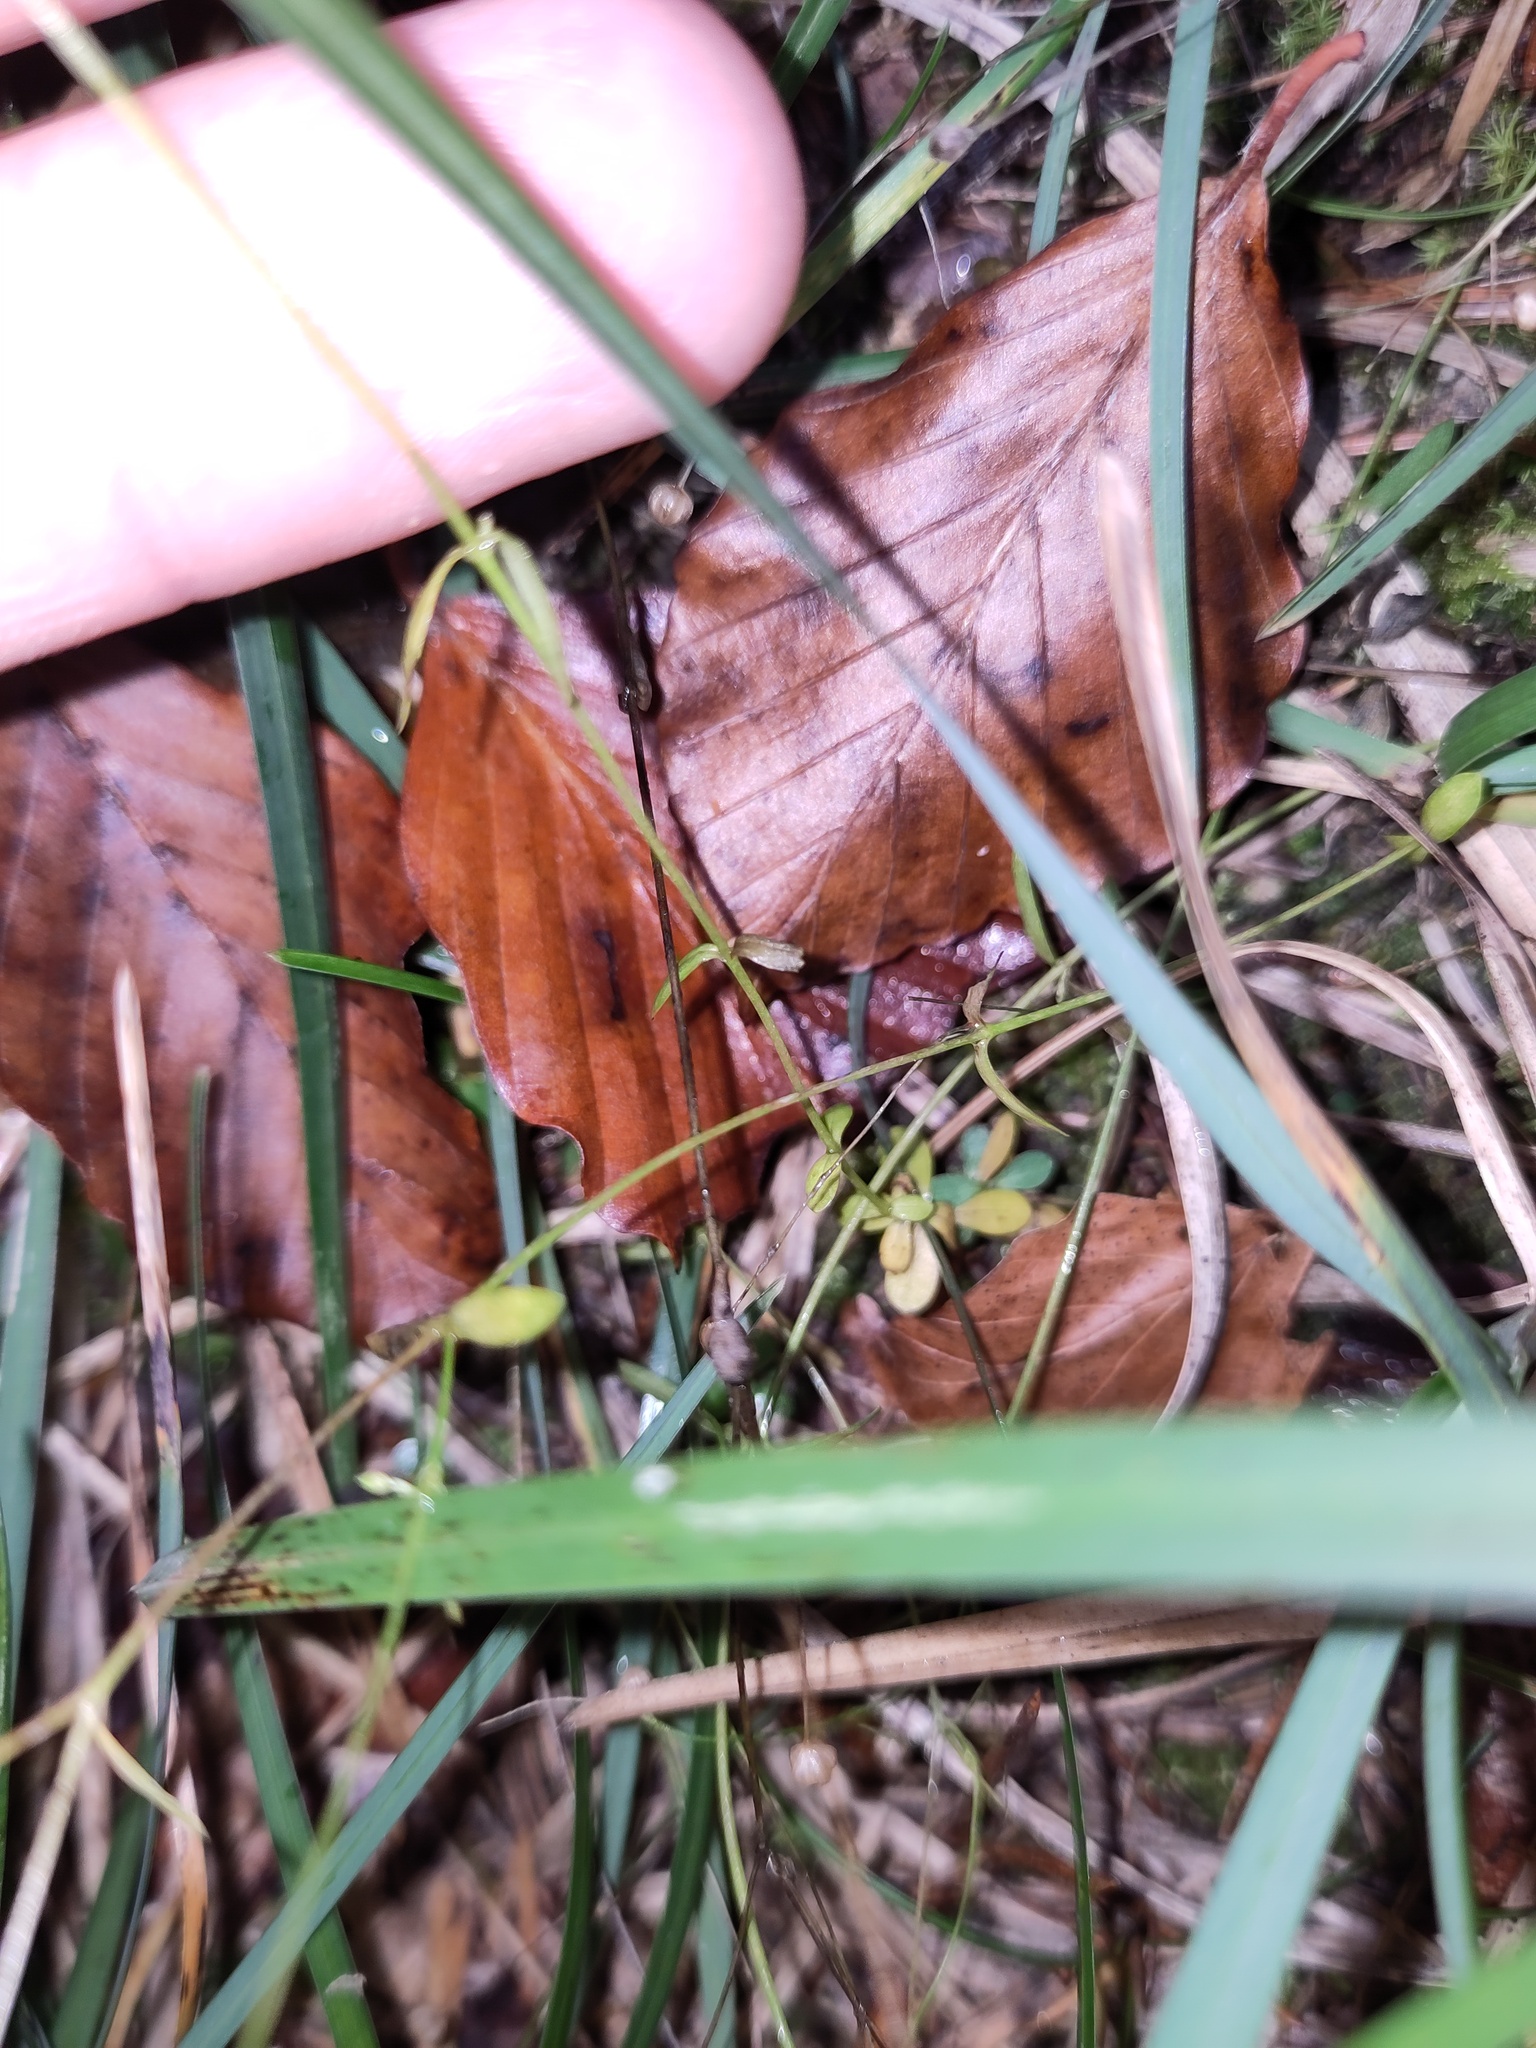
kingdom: Plantae
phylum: Tracheophyta
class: Magnoliopsida
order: Malpighiales
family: Linaceae
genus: Linum
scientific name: Linum catharticum
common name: Fairy flax
